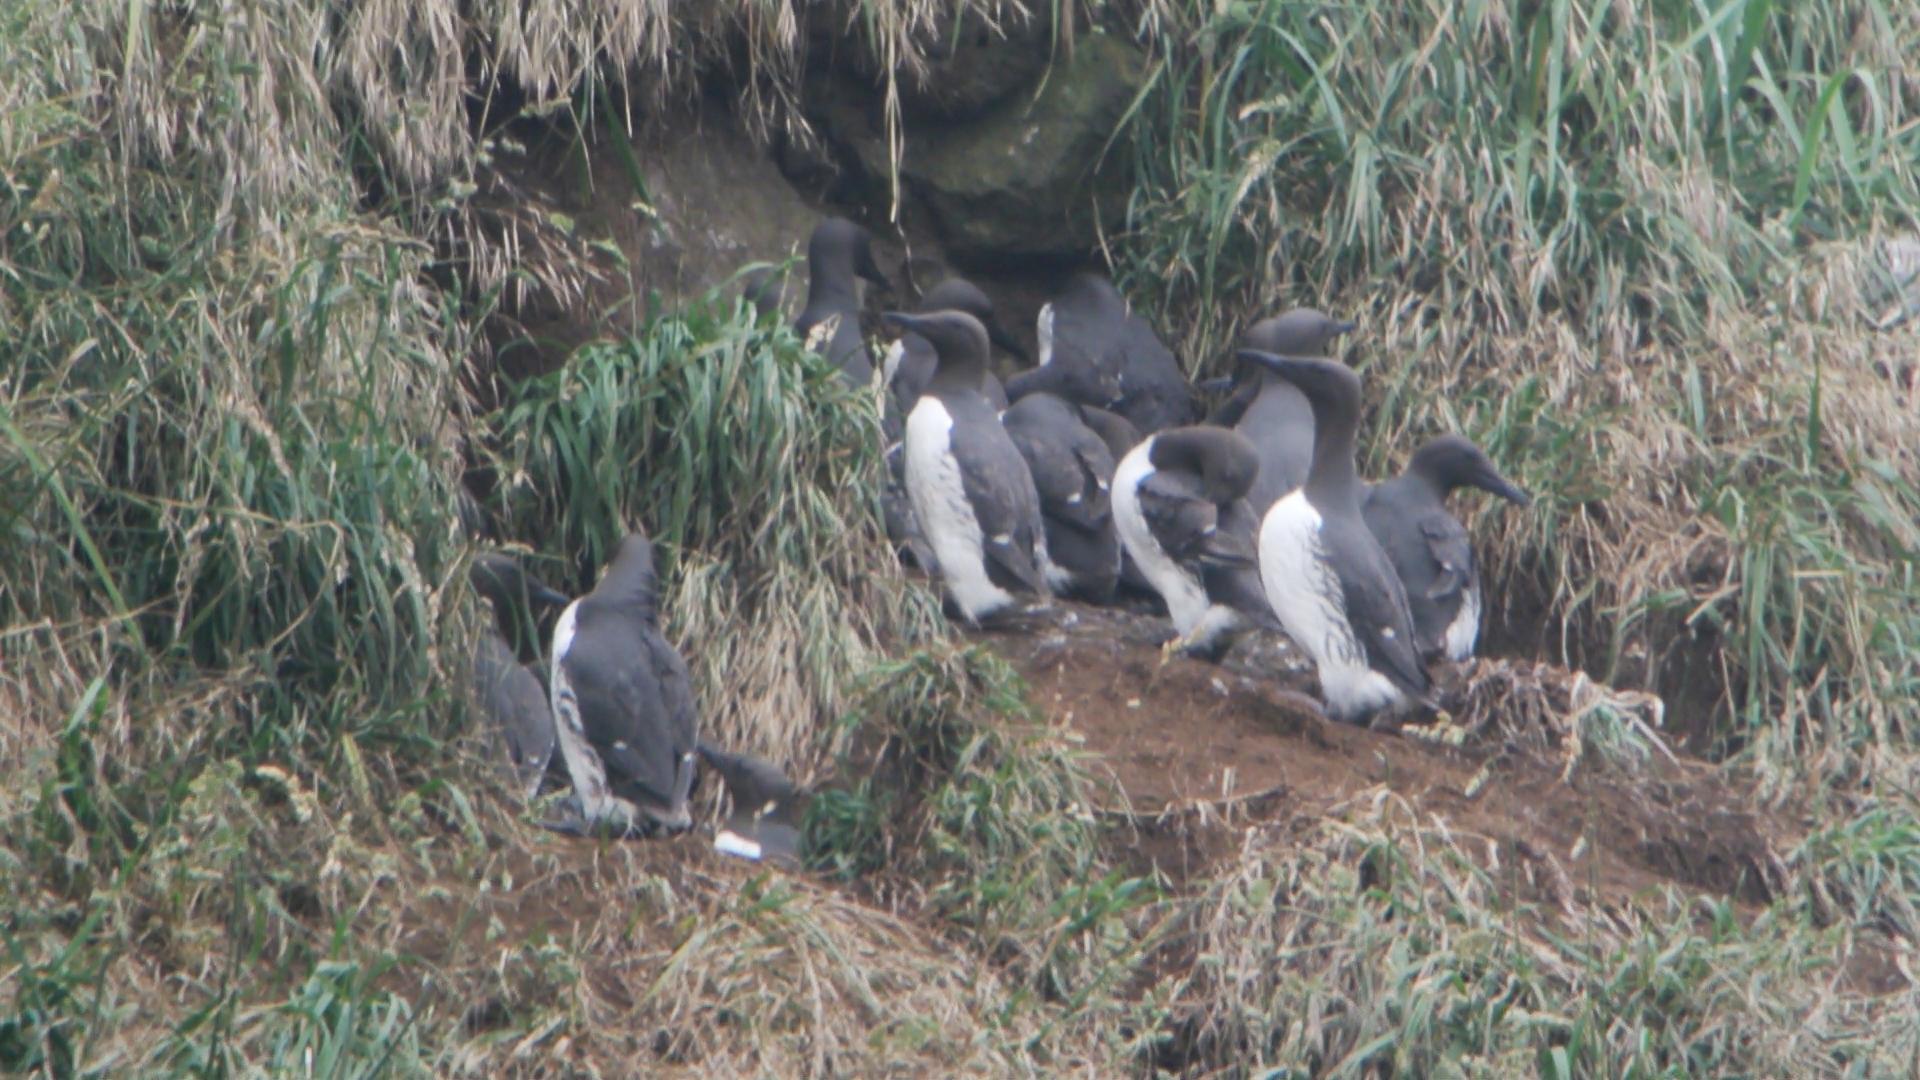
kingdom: Animalia
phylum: Chordata
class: Aves
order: Charadriiformes
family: Alcidae
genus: Uria
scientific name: Uria aalge
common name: Common murre
